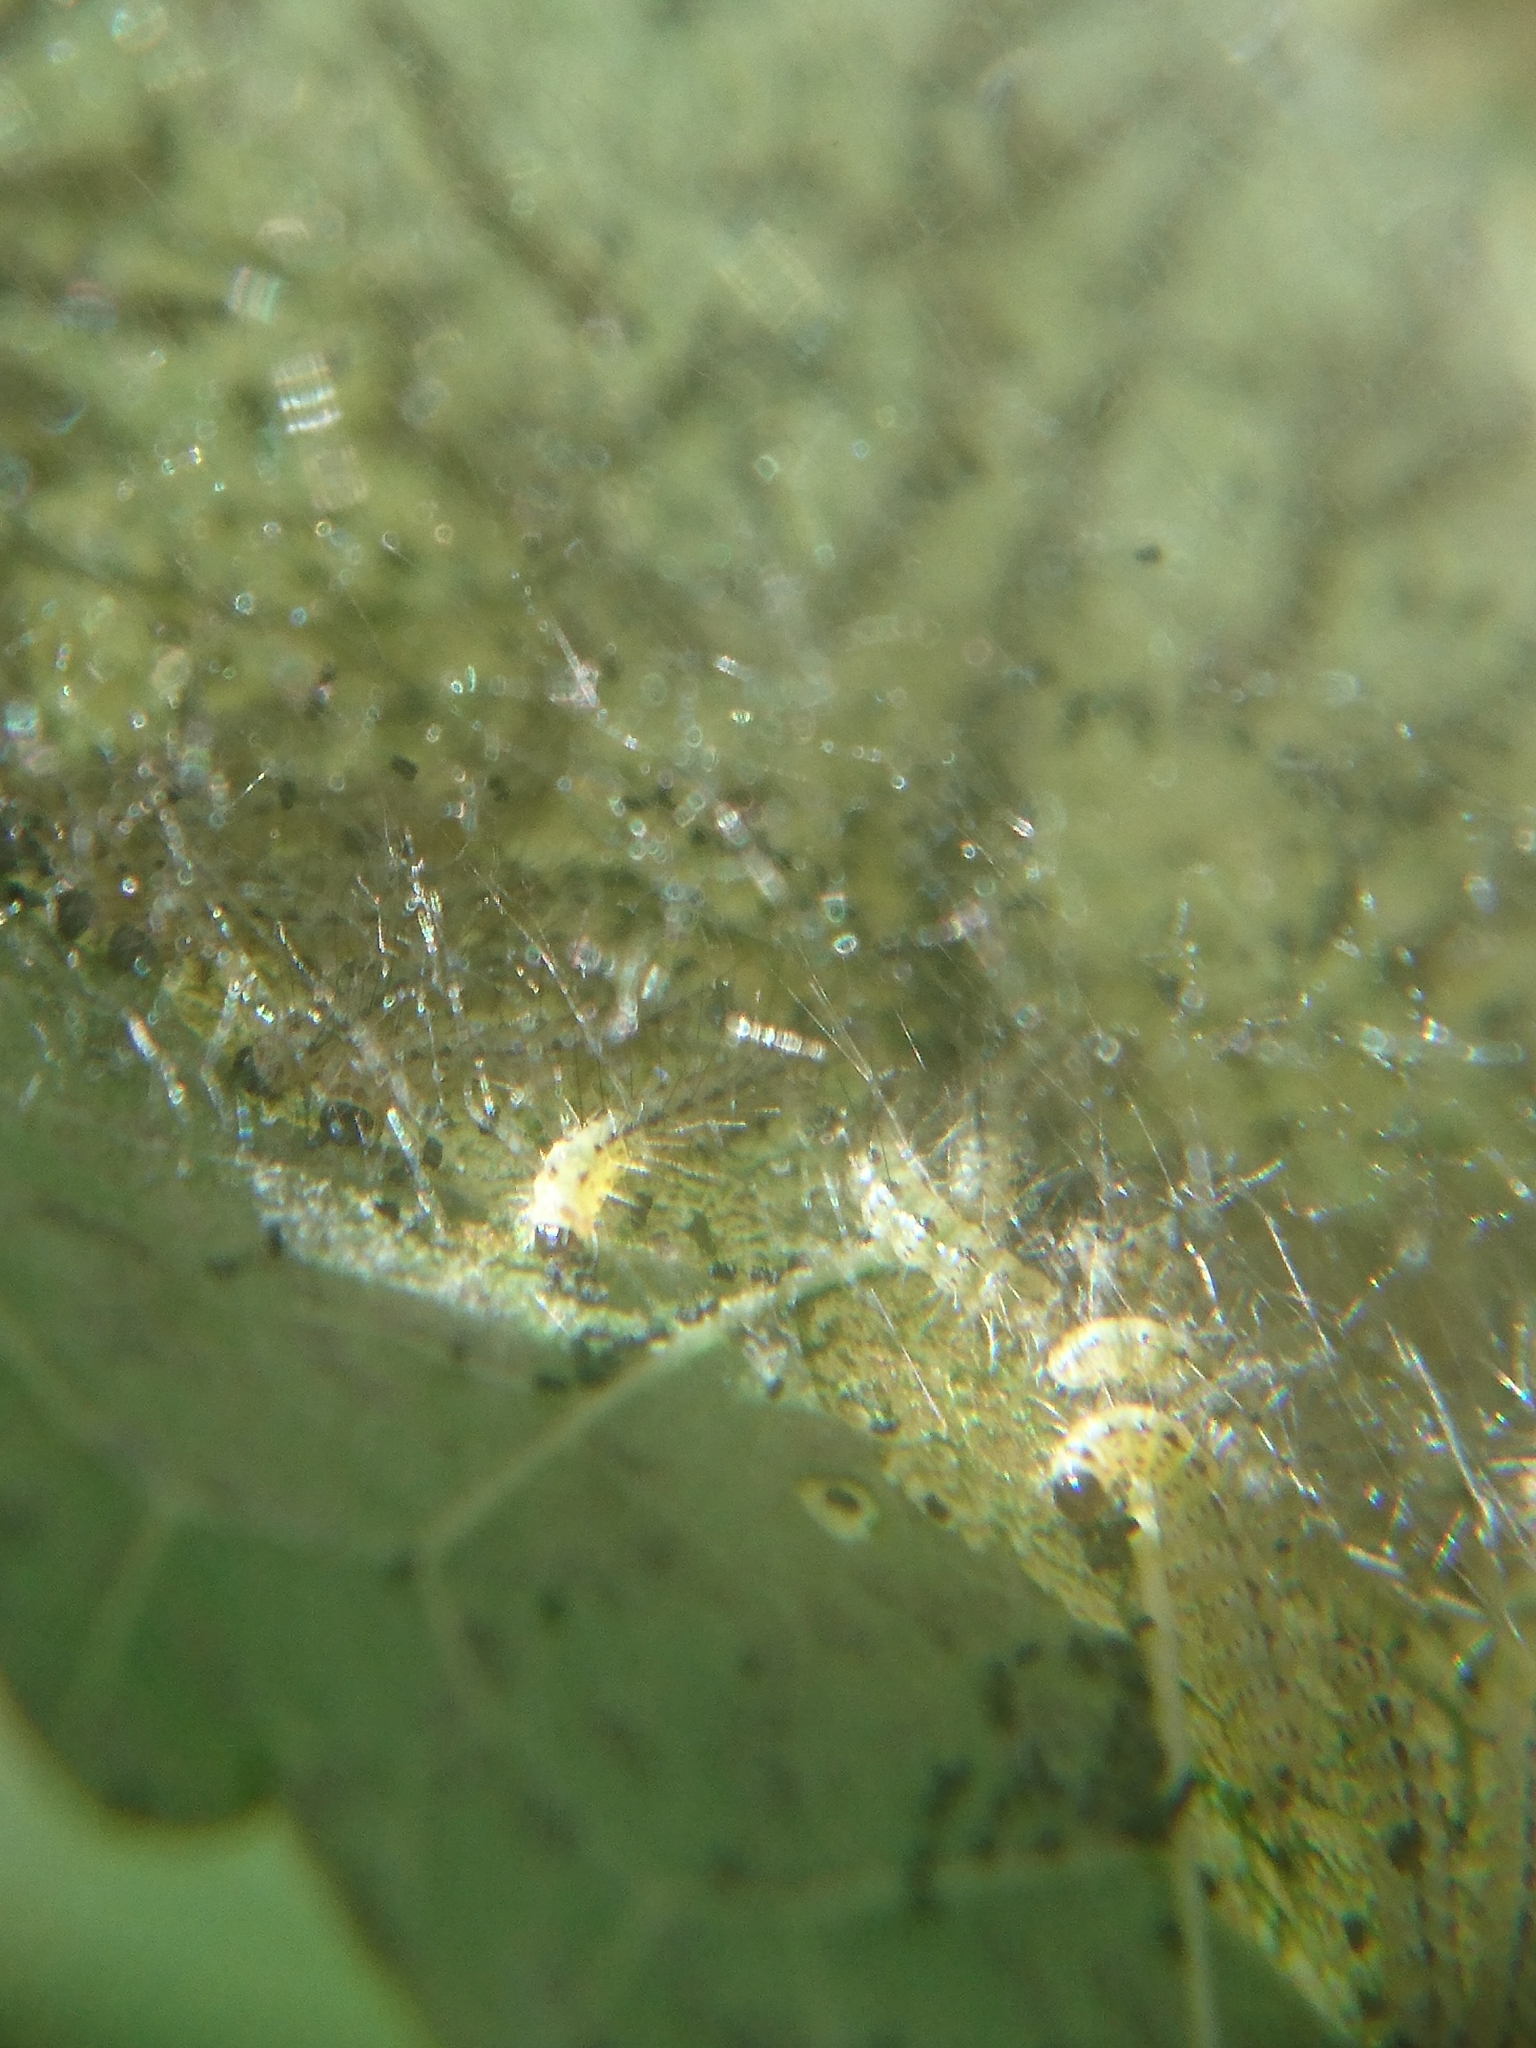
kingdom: Animalia
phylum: Arthropoda
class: Insecta
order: Lepidoptera
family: Erebidae
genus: Hyphantria
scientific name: Hyphantria cunea
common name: American white moth
